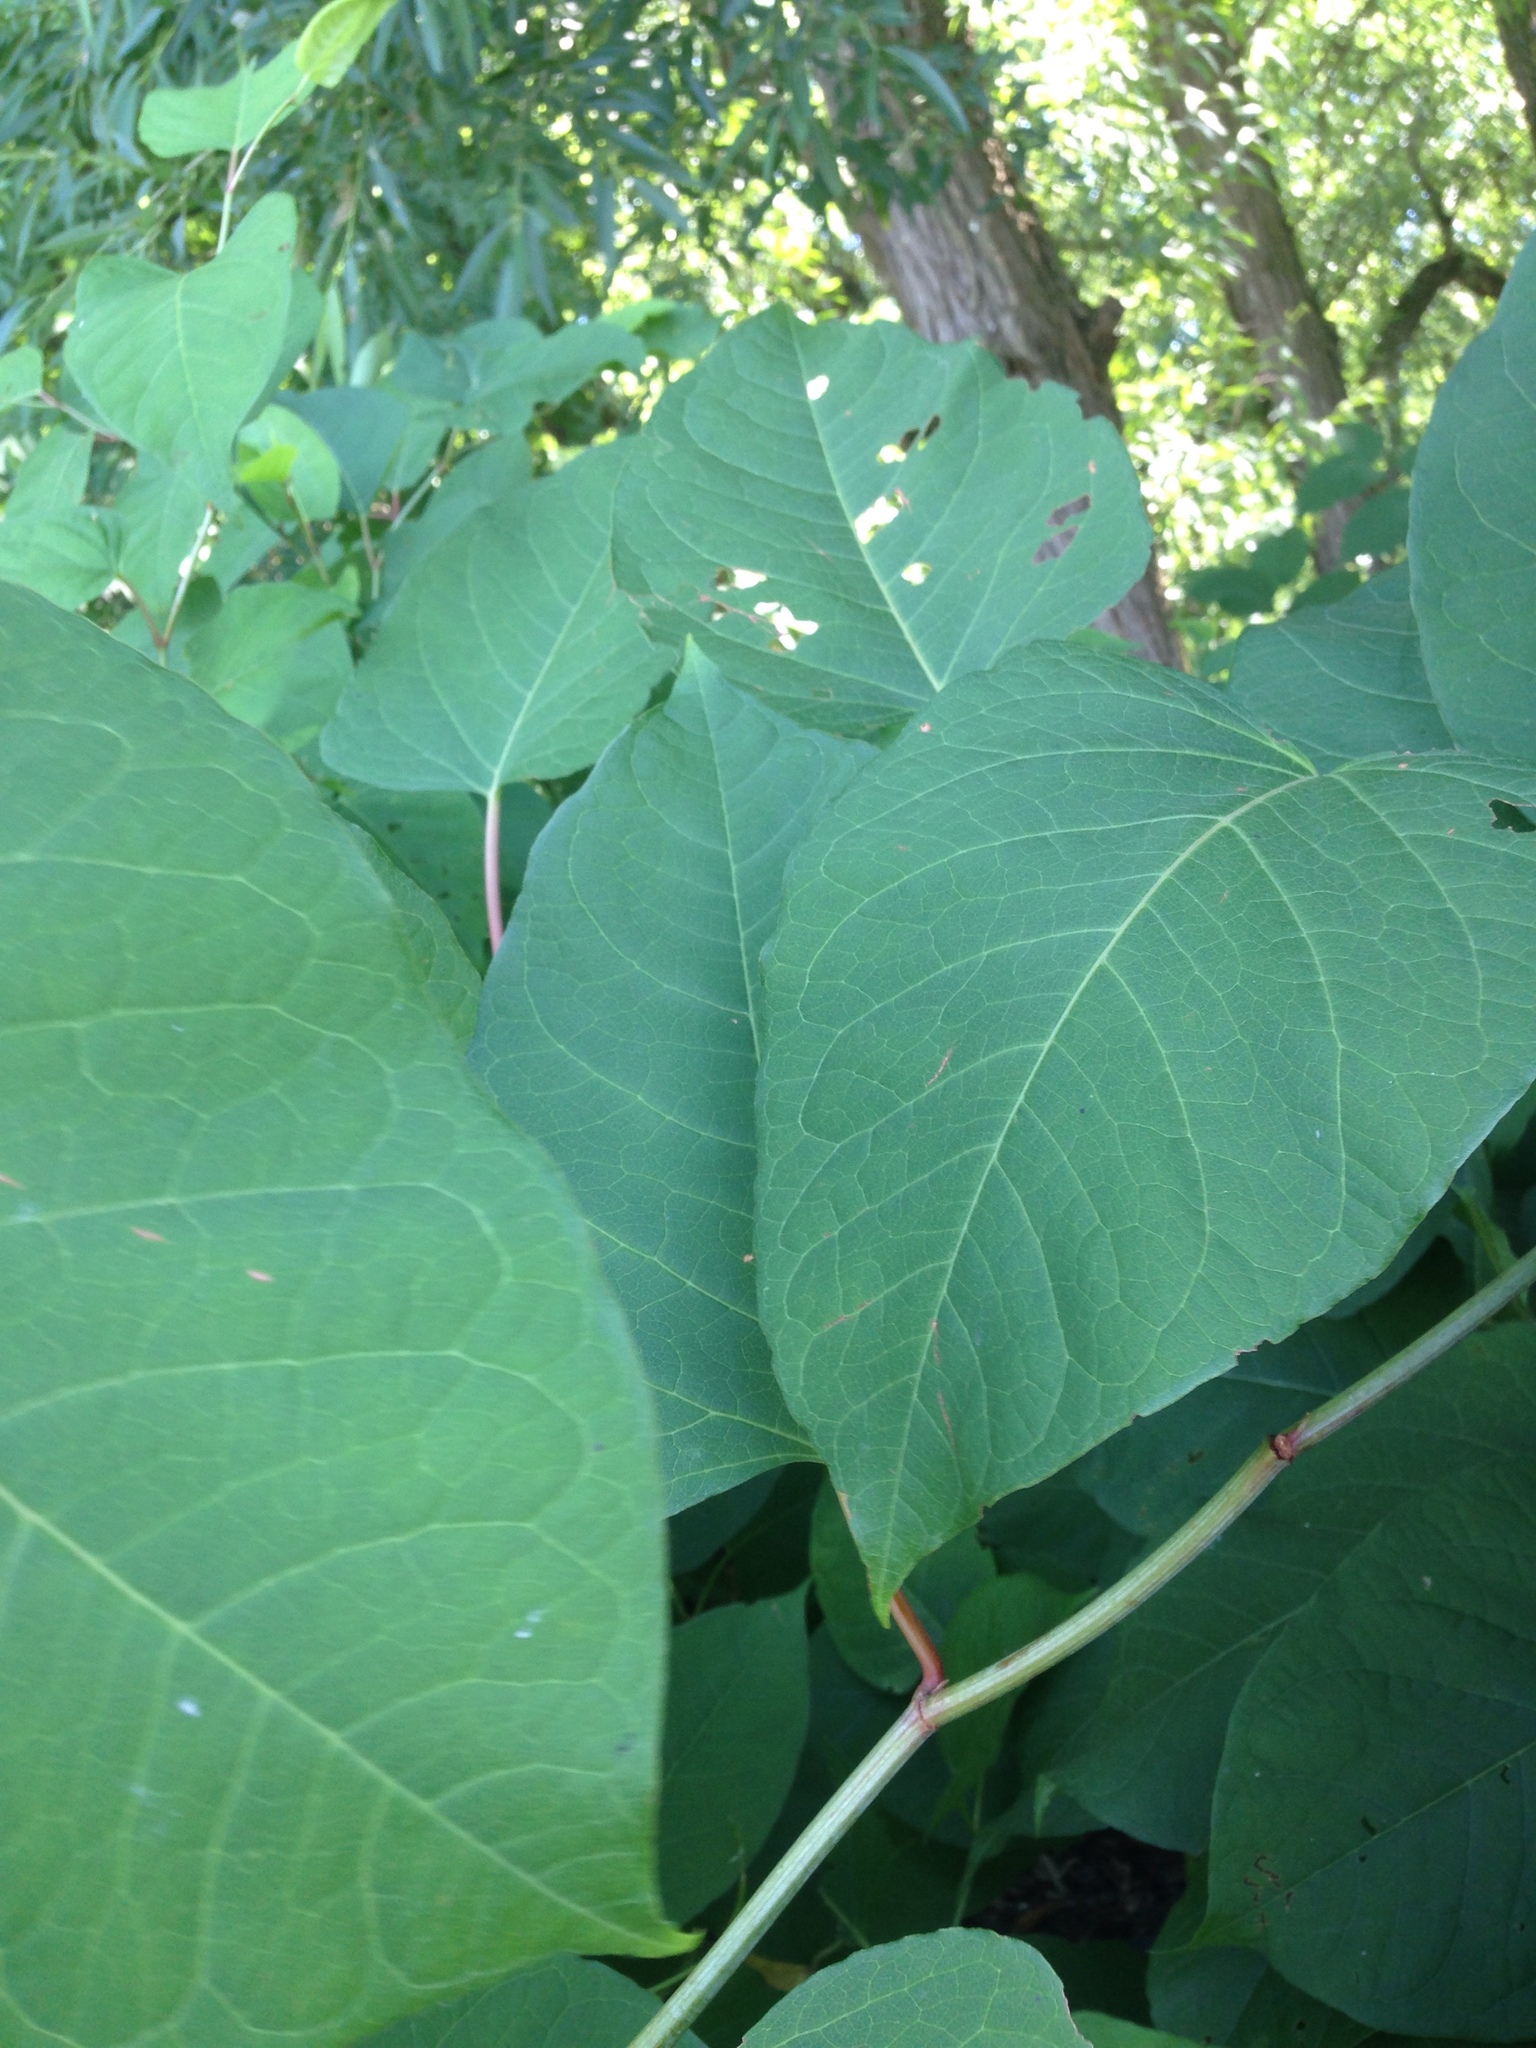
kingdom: Plantae
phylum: Tracheophyta
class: Magnoliopsida
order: Caryophyllales
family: Polygonaceae
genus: Reynoutria
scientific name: Reynoutria japonica
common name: Japanese knotweed
